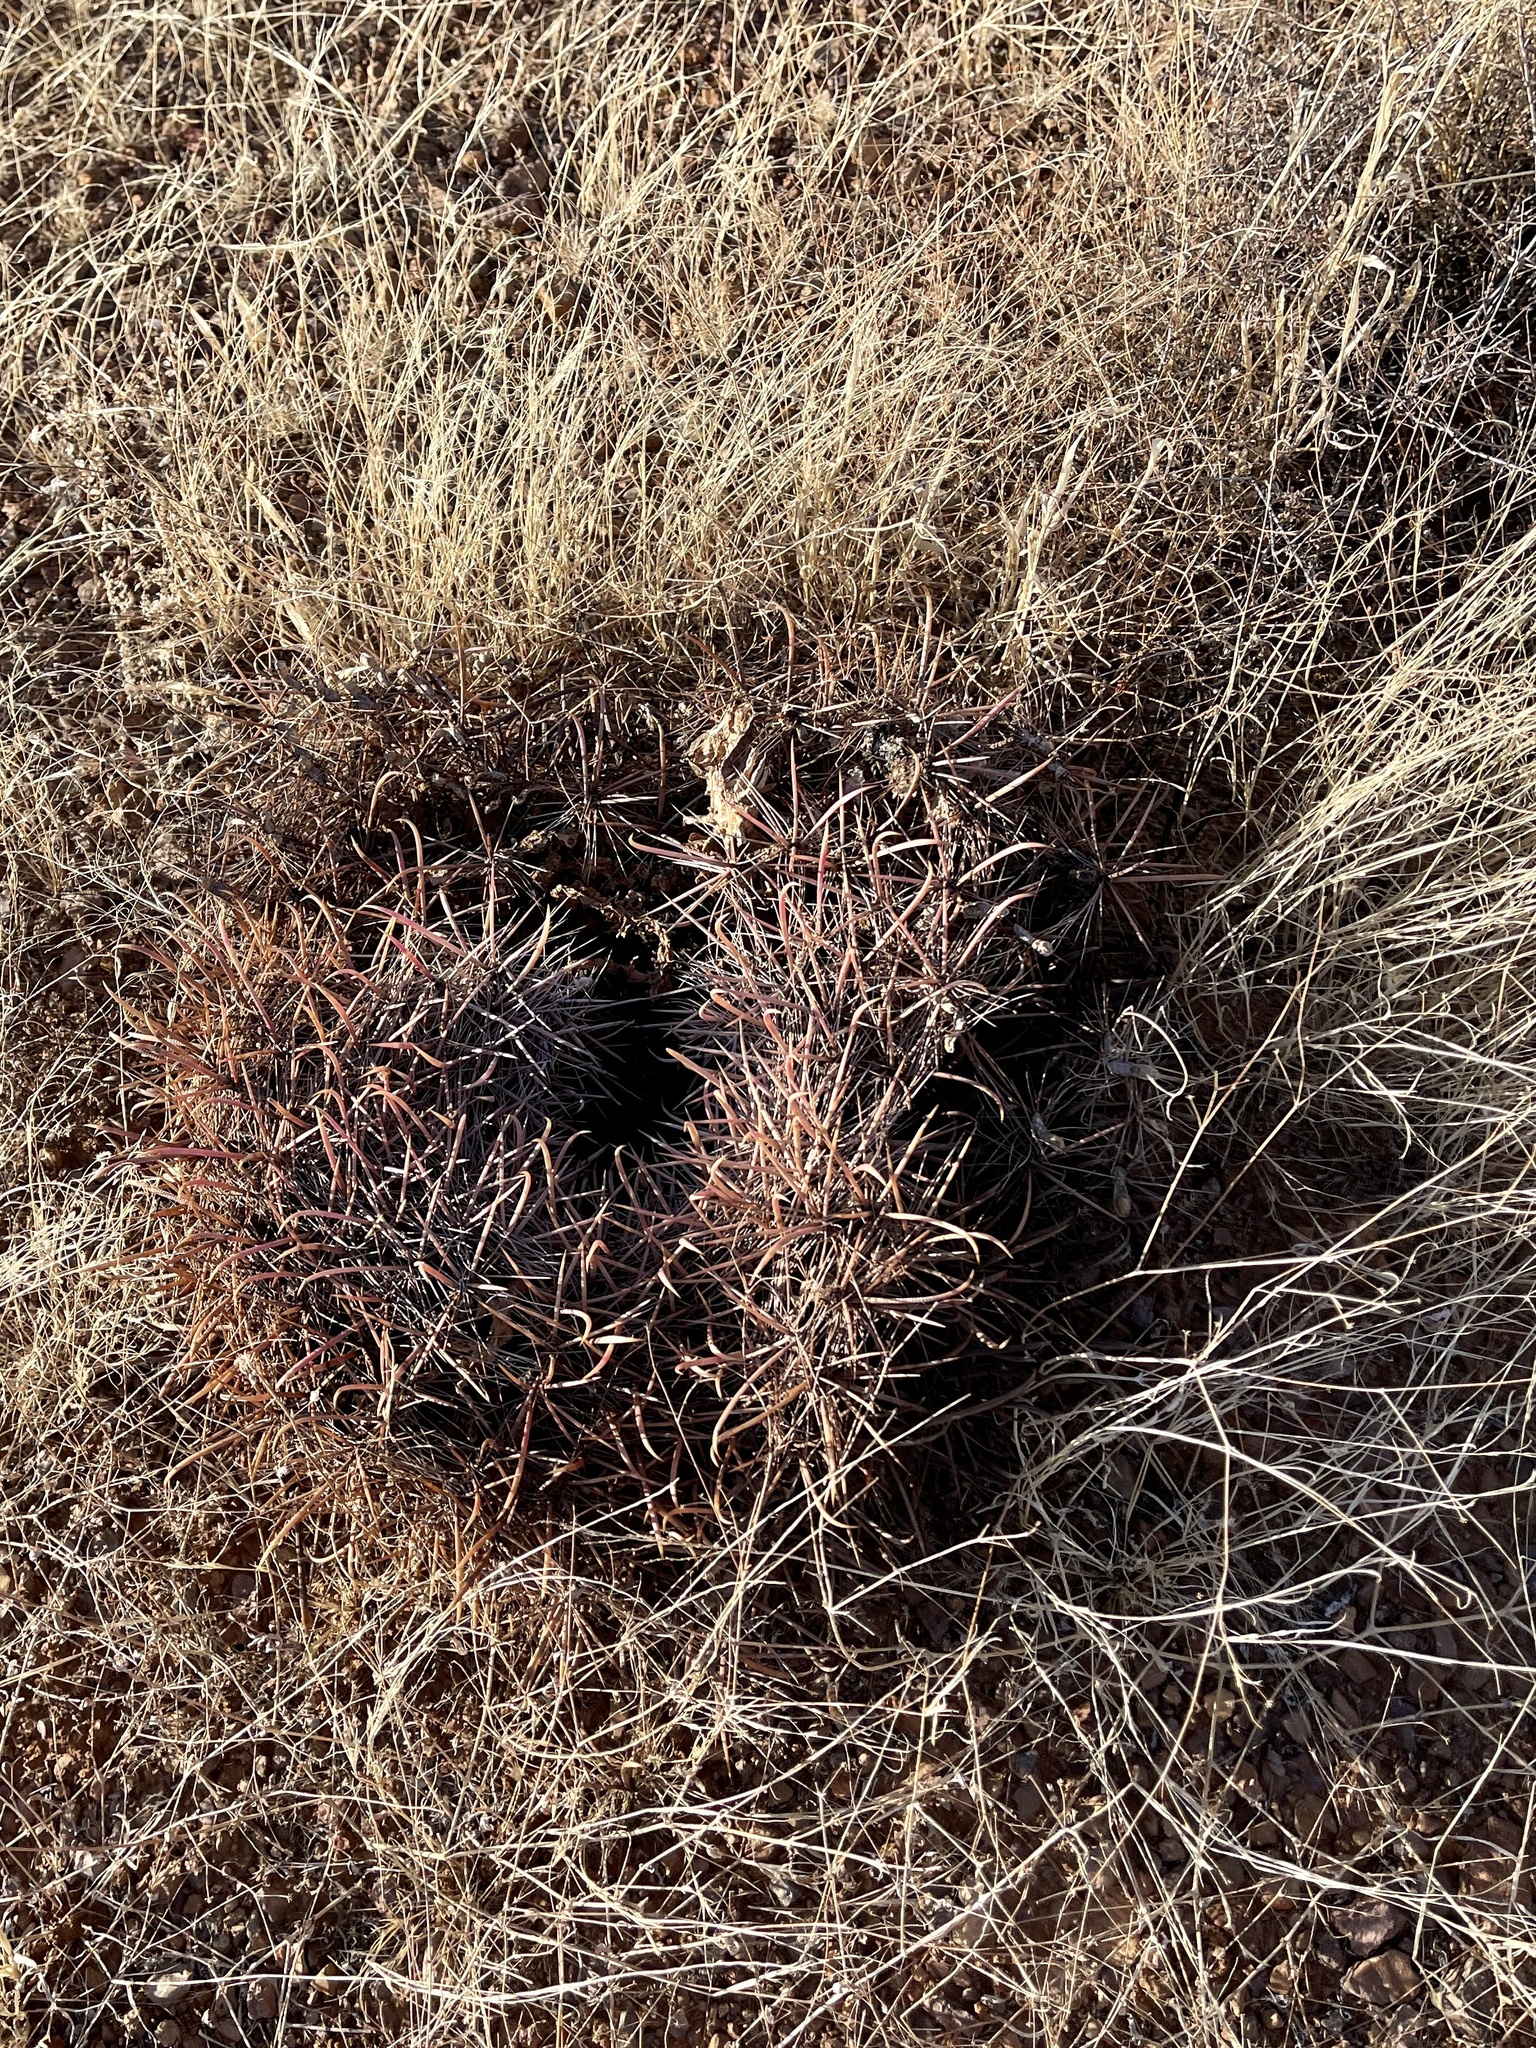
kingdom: Plantae
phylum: Tracheophyta
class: Magnoliopsida
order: Caryophyllales
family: Cactaceae
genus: Ferocactus
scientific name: Ferocactus wislizeni
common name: Candy barrel cactus
